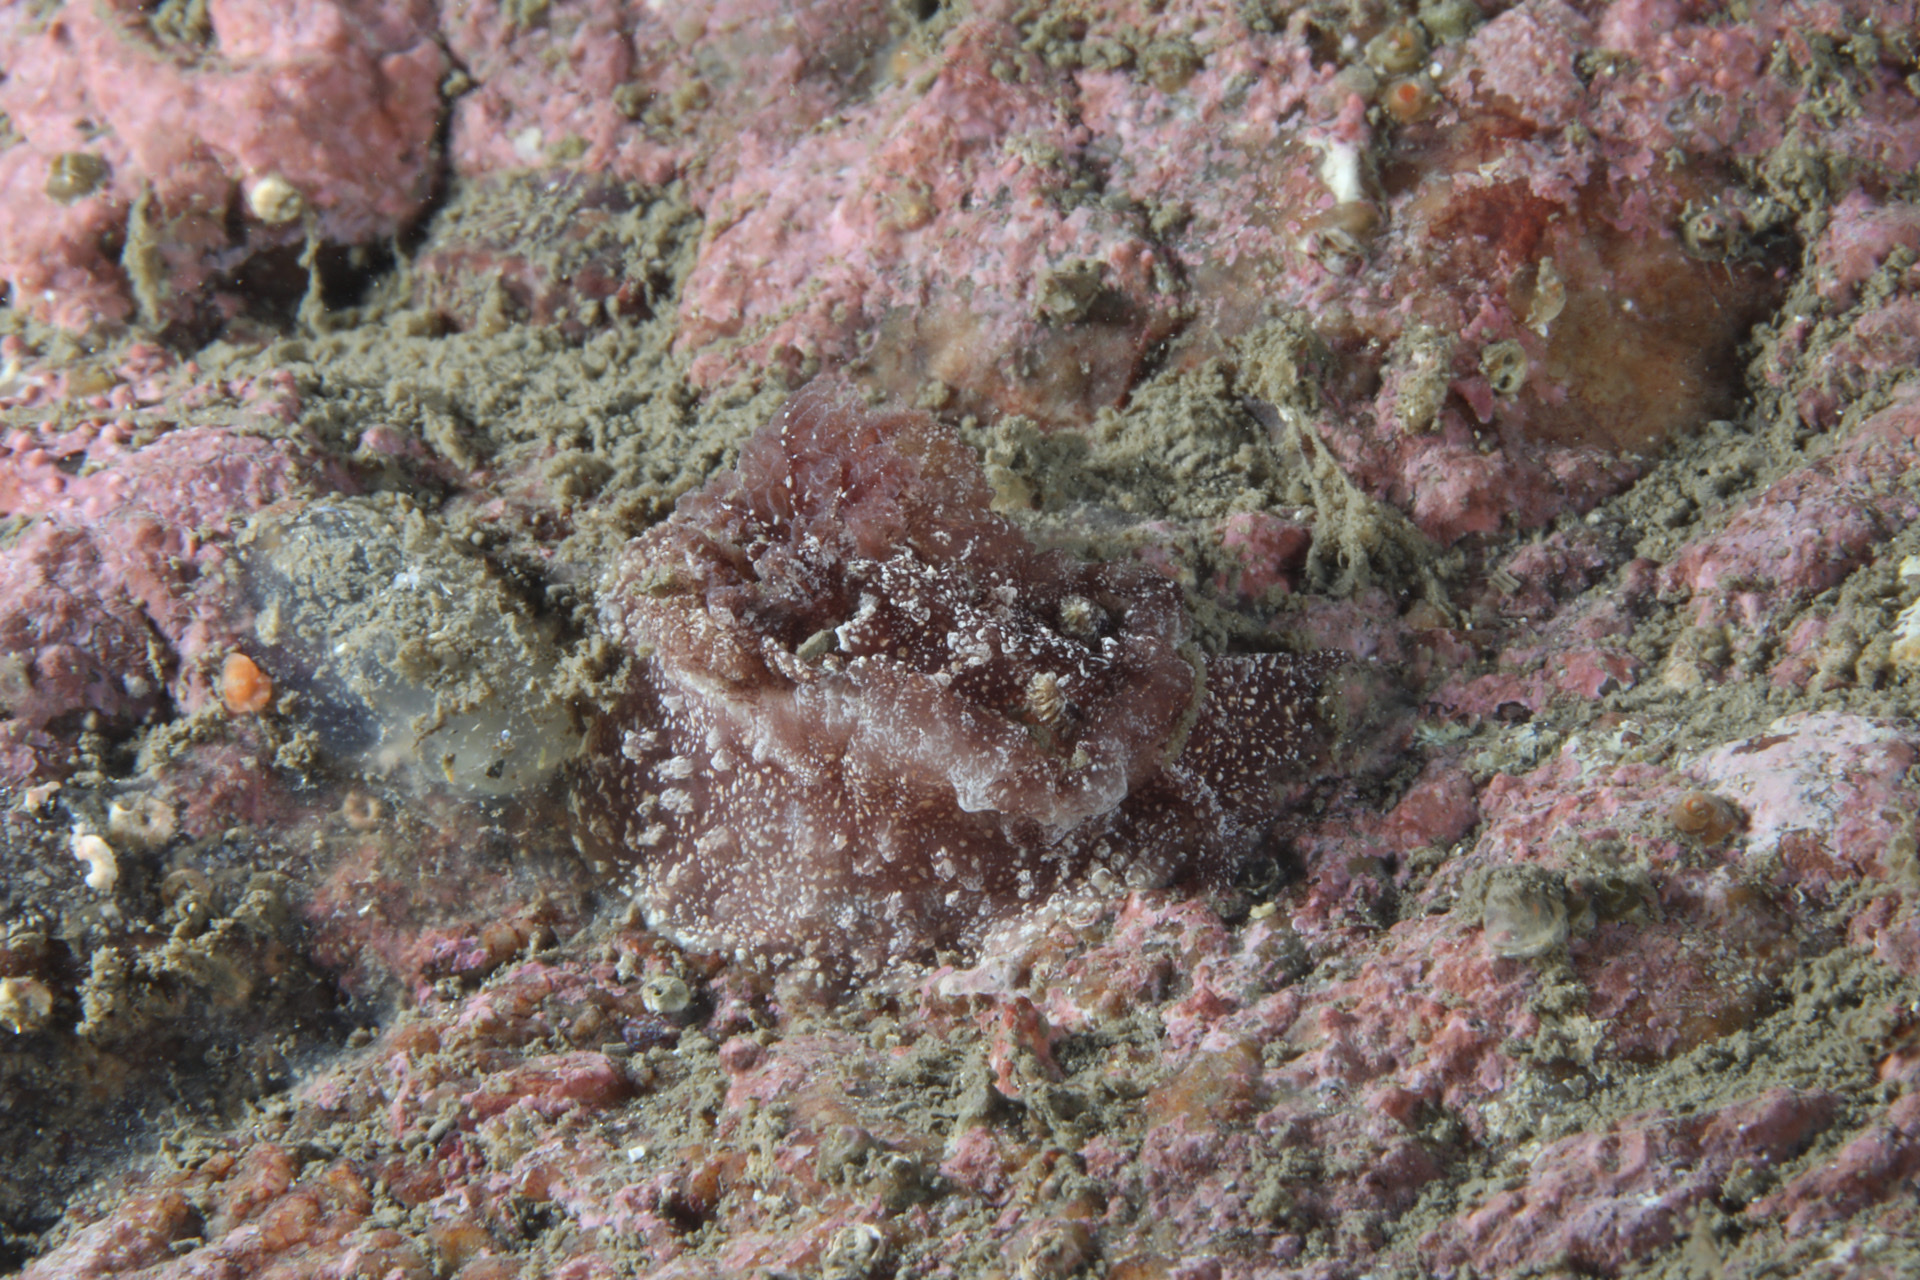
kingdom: Animalia
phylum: Mollusca
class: Gastropoda
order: Nudibranchia
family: Goniodorididae
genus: Pelagella
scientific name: Pelagella castanea
